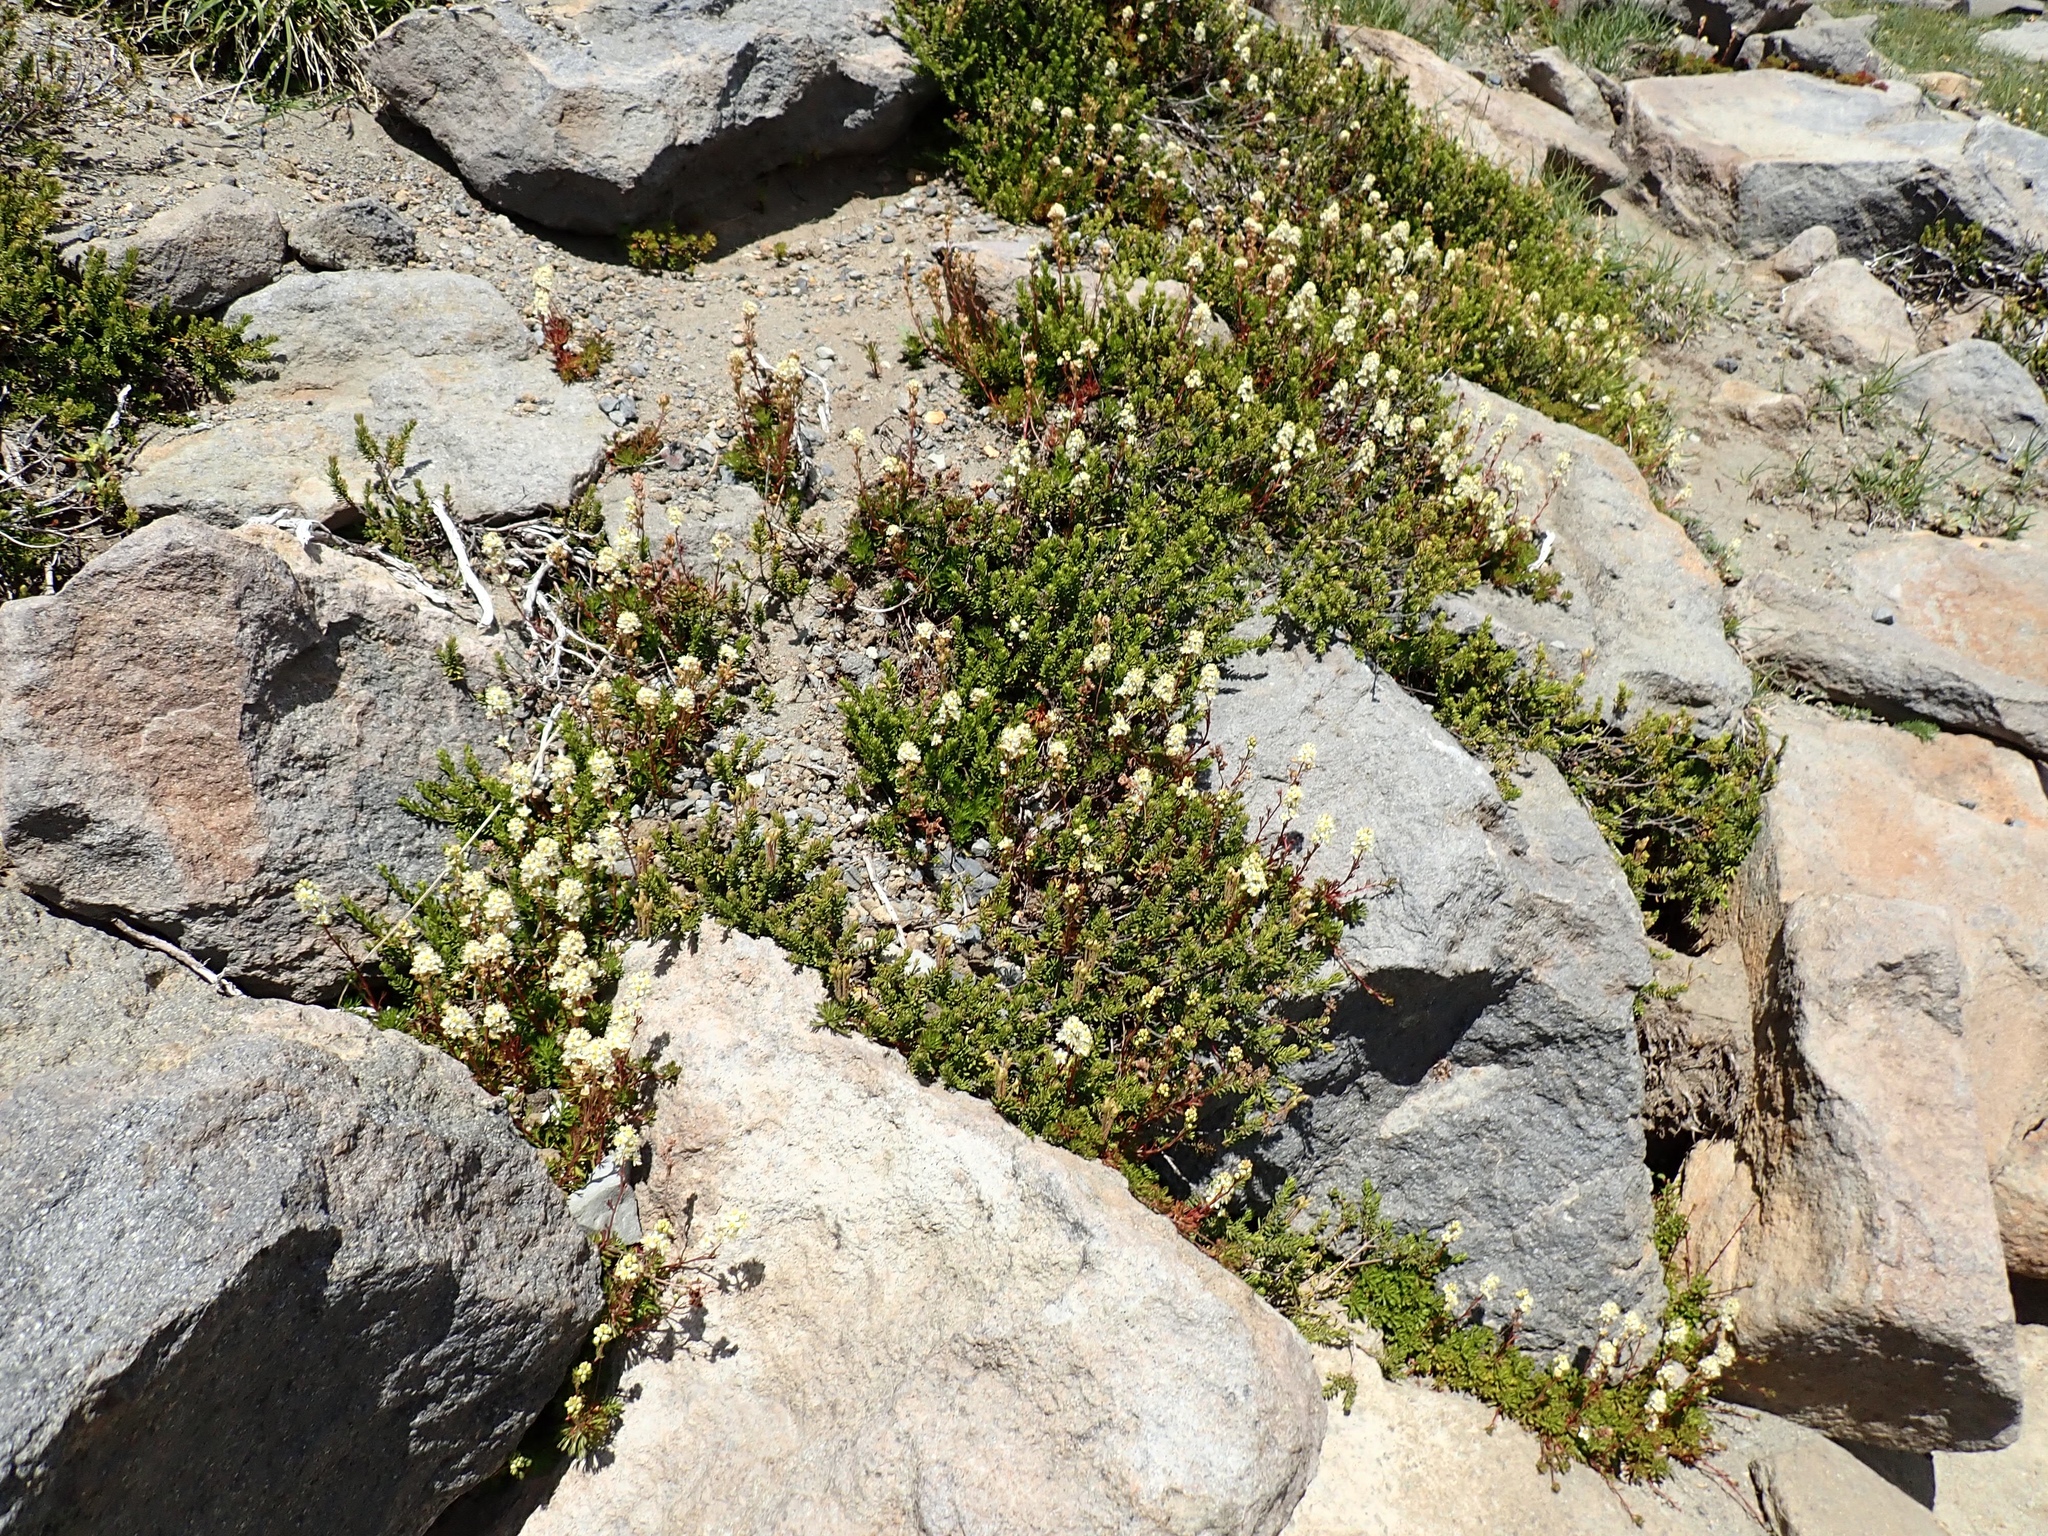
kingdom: Plantae
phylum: Tracheophyta
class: Magnoliopsida
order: Rosales
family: Rosaceae
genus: Luetkea
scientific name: Luetkea pectinata
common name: Partridgefoot
